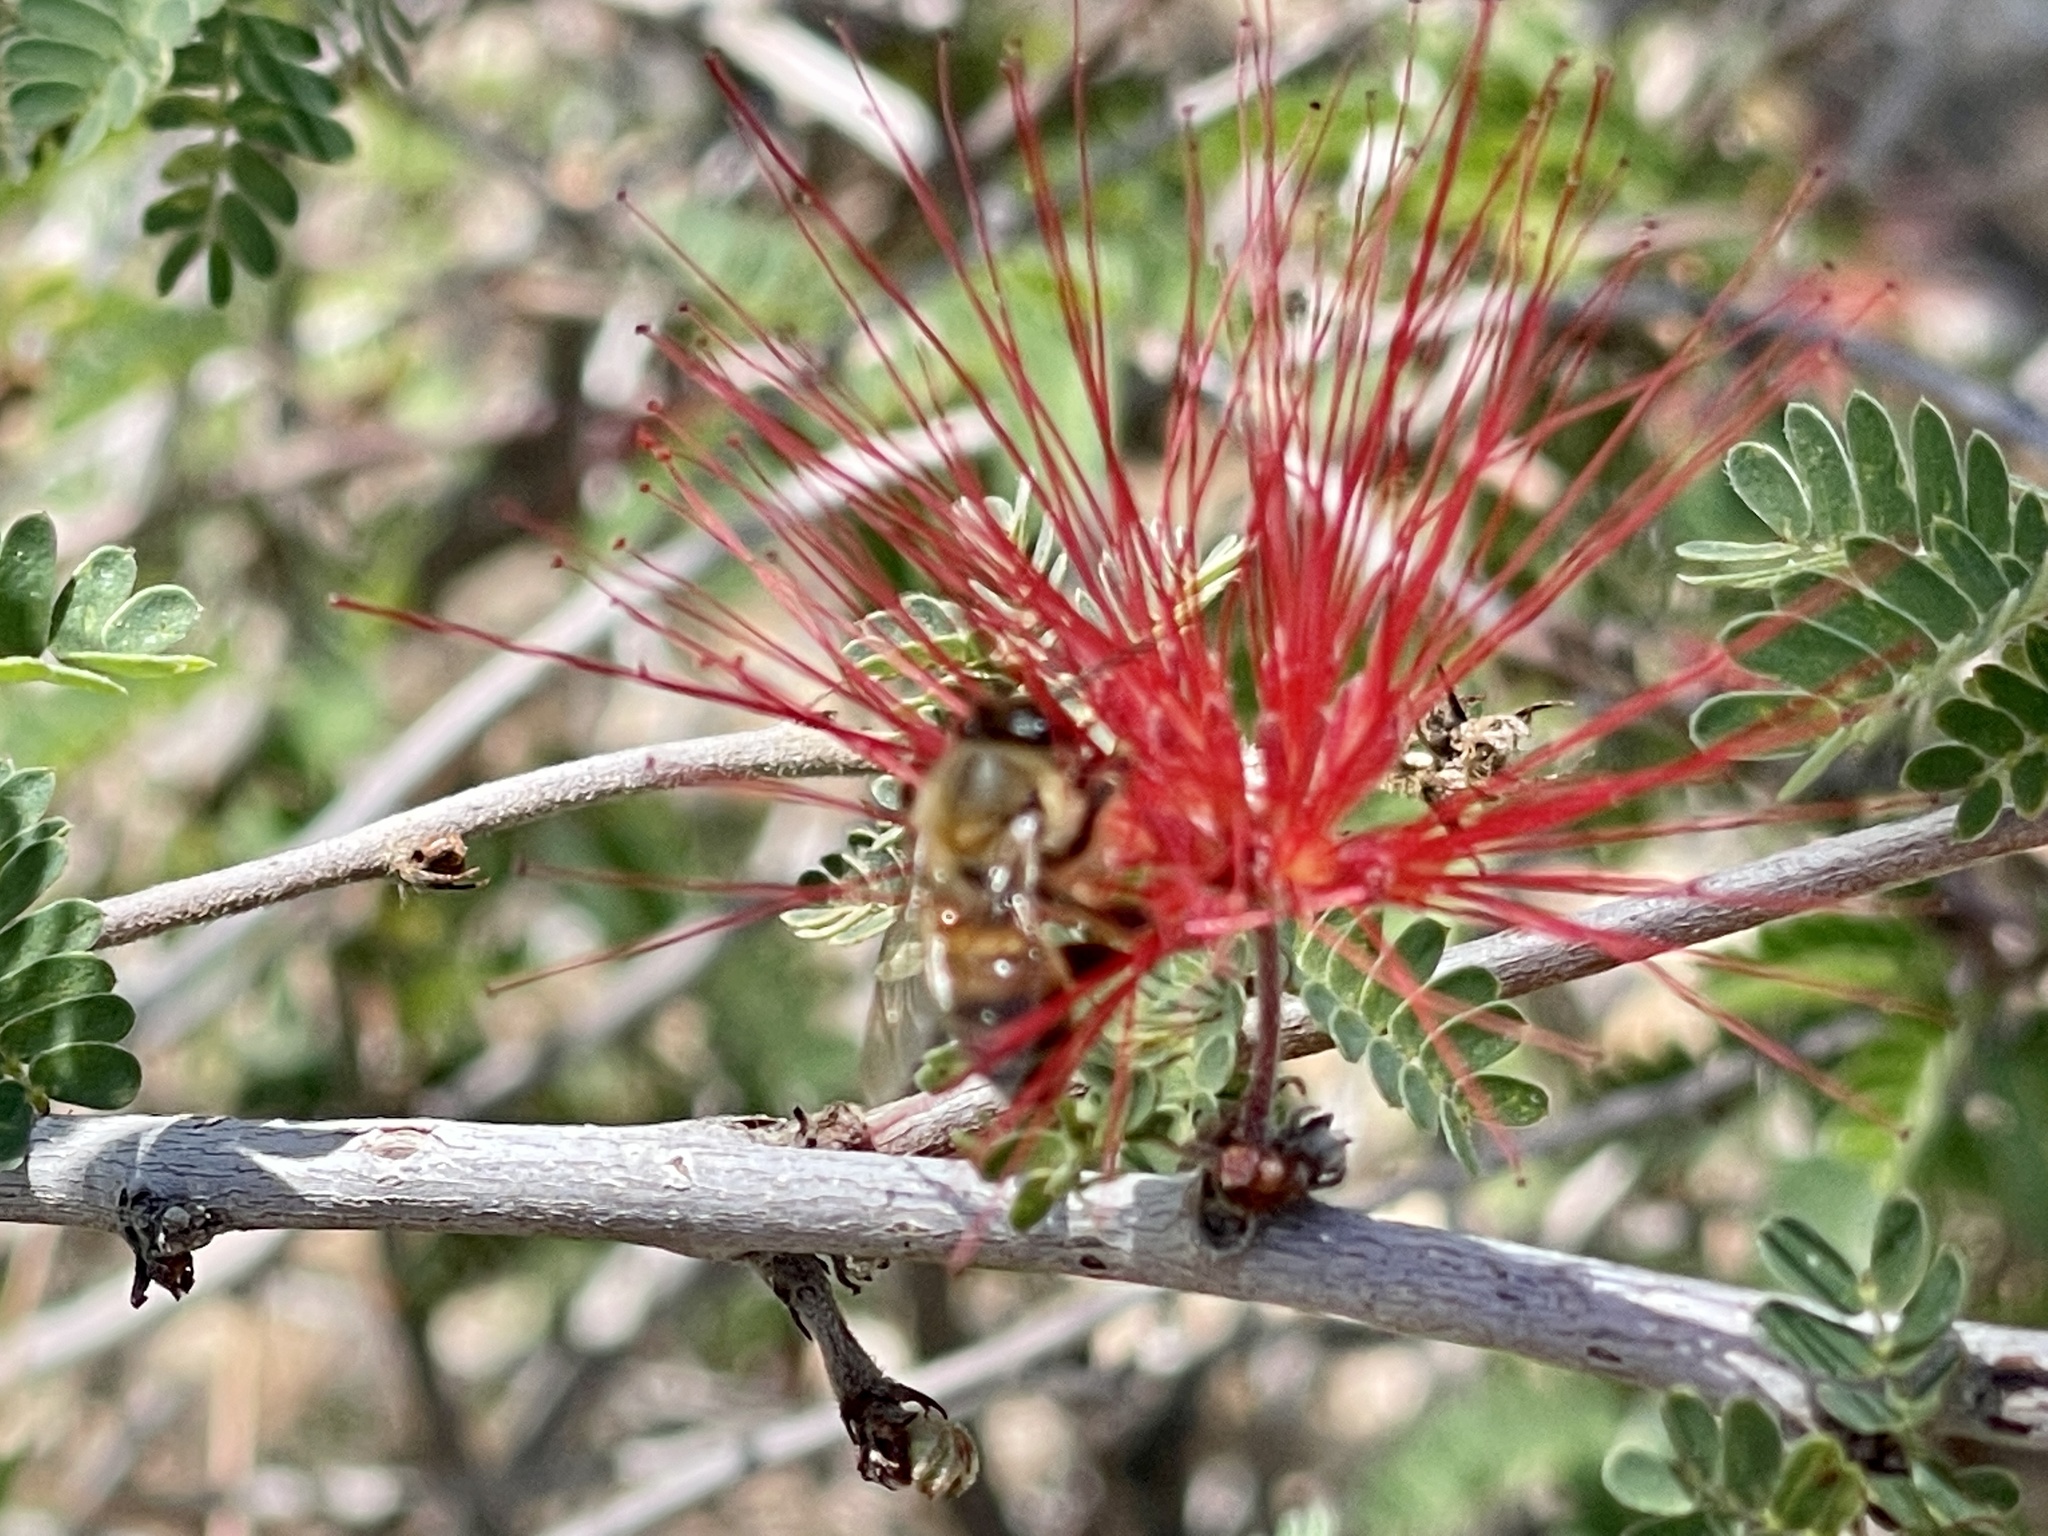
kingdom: Animalia
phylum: Arthropoda
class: Insecta
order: Hymenoptera
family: Apidae
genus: Apis
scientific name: Apis mellifera
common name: Honey bee
